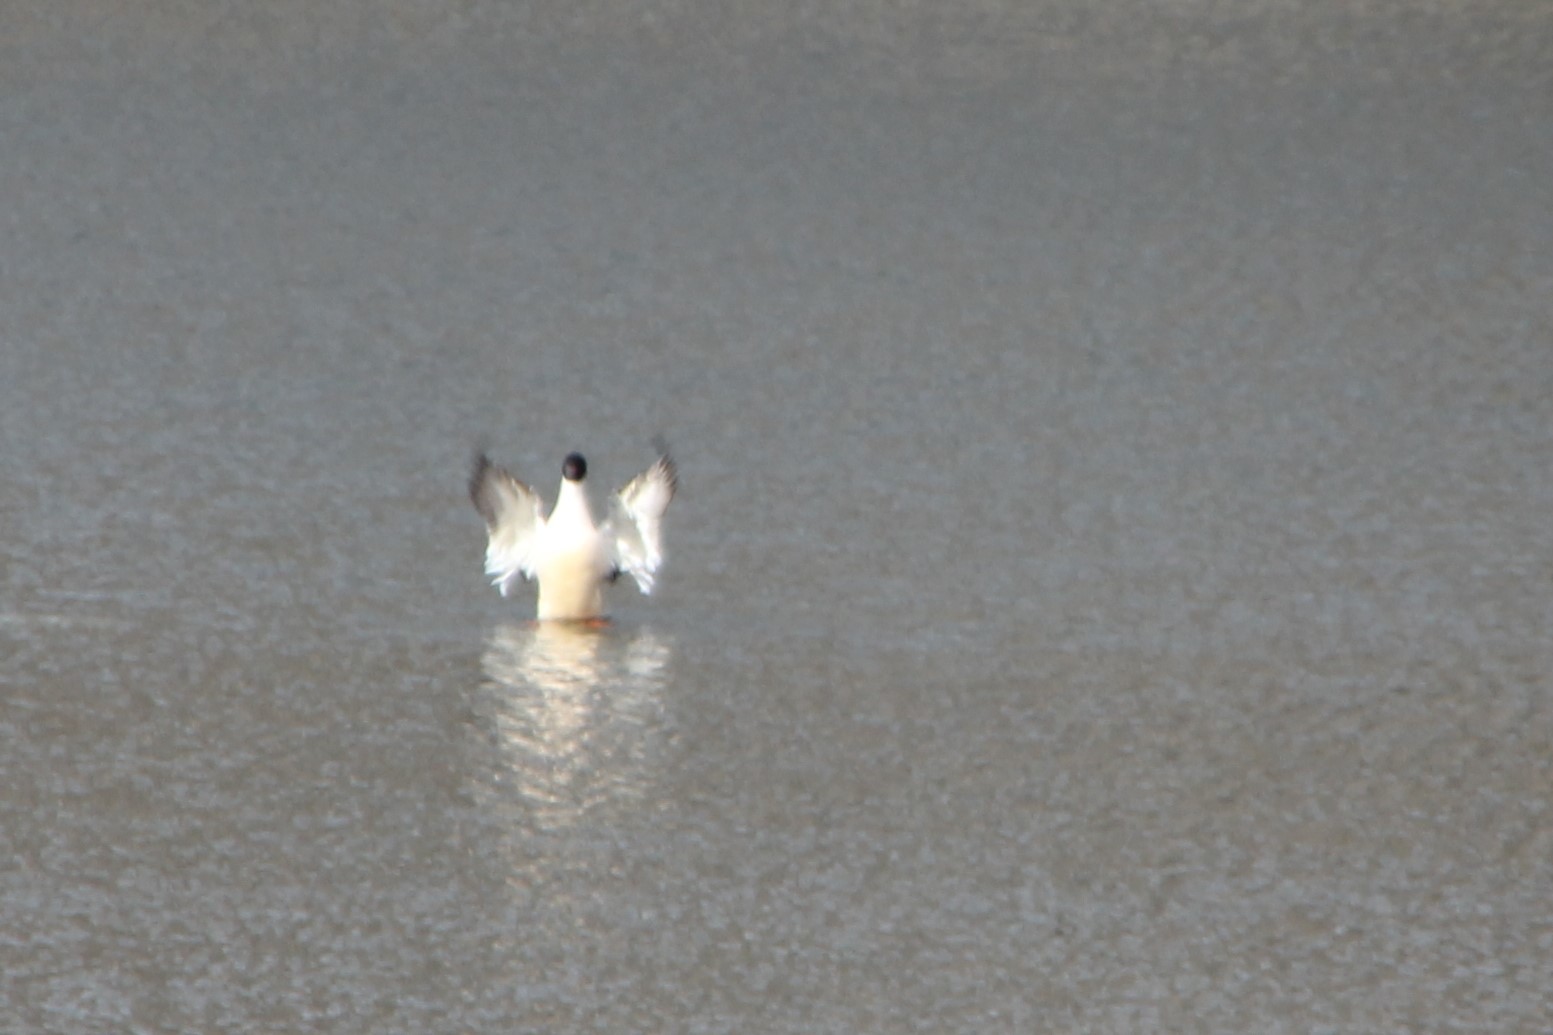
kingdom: Animalia
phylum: Chordata
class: Aves
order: Anseriformes
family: Anatidae
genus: Mergus
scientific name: Mergus merganser
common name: Common merganser
